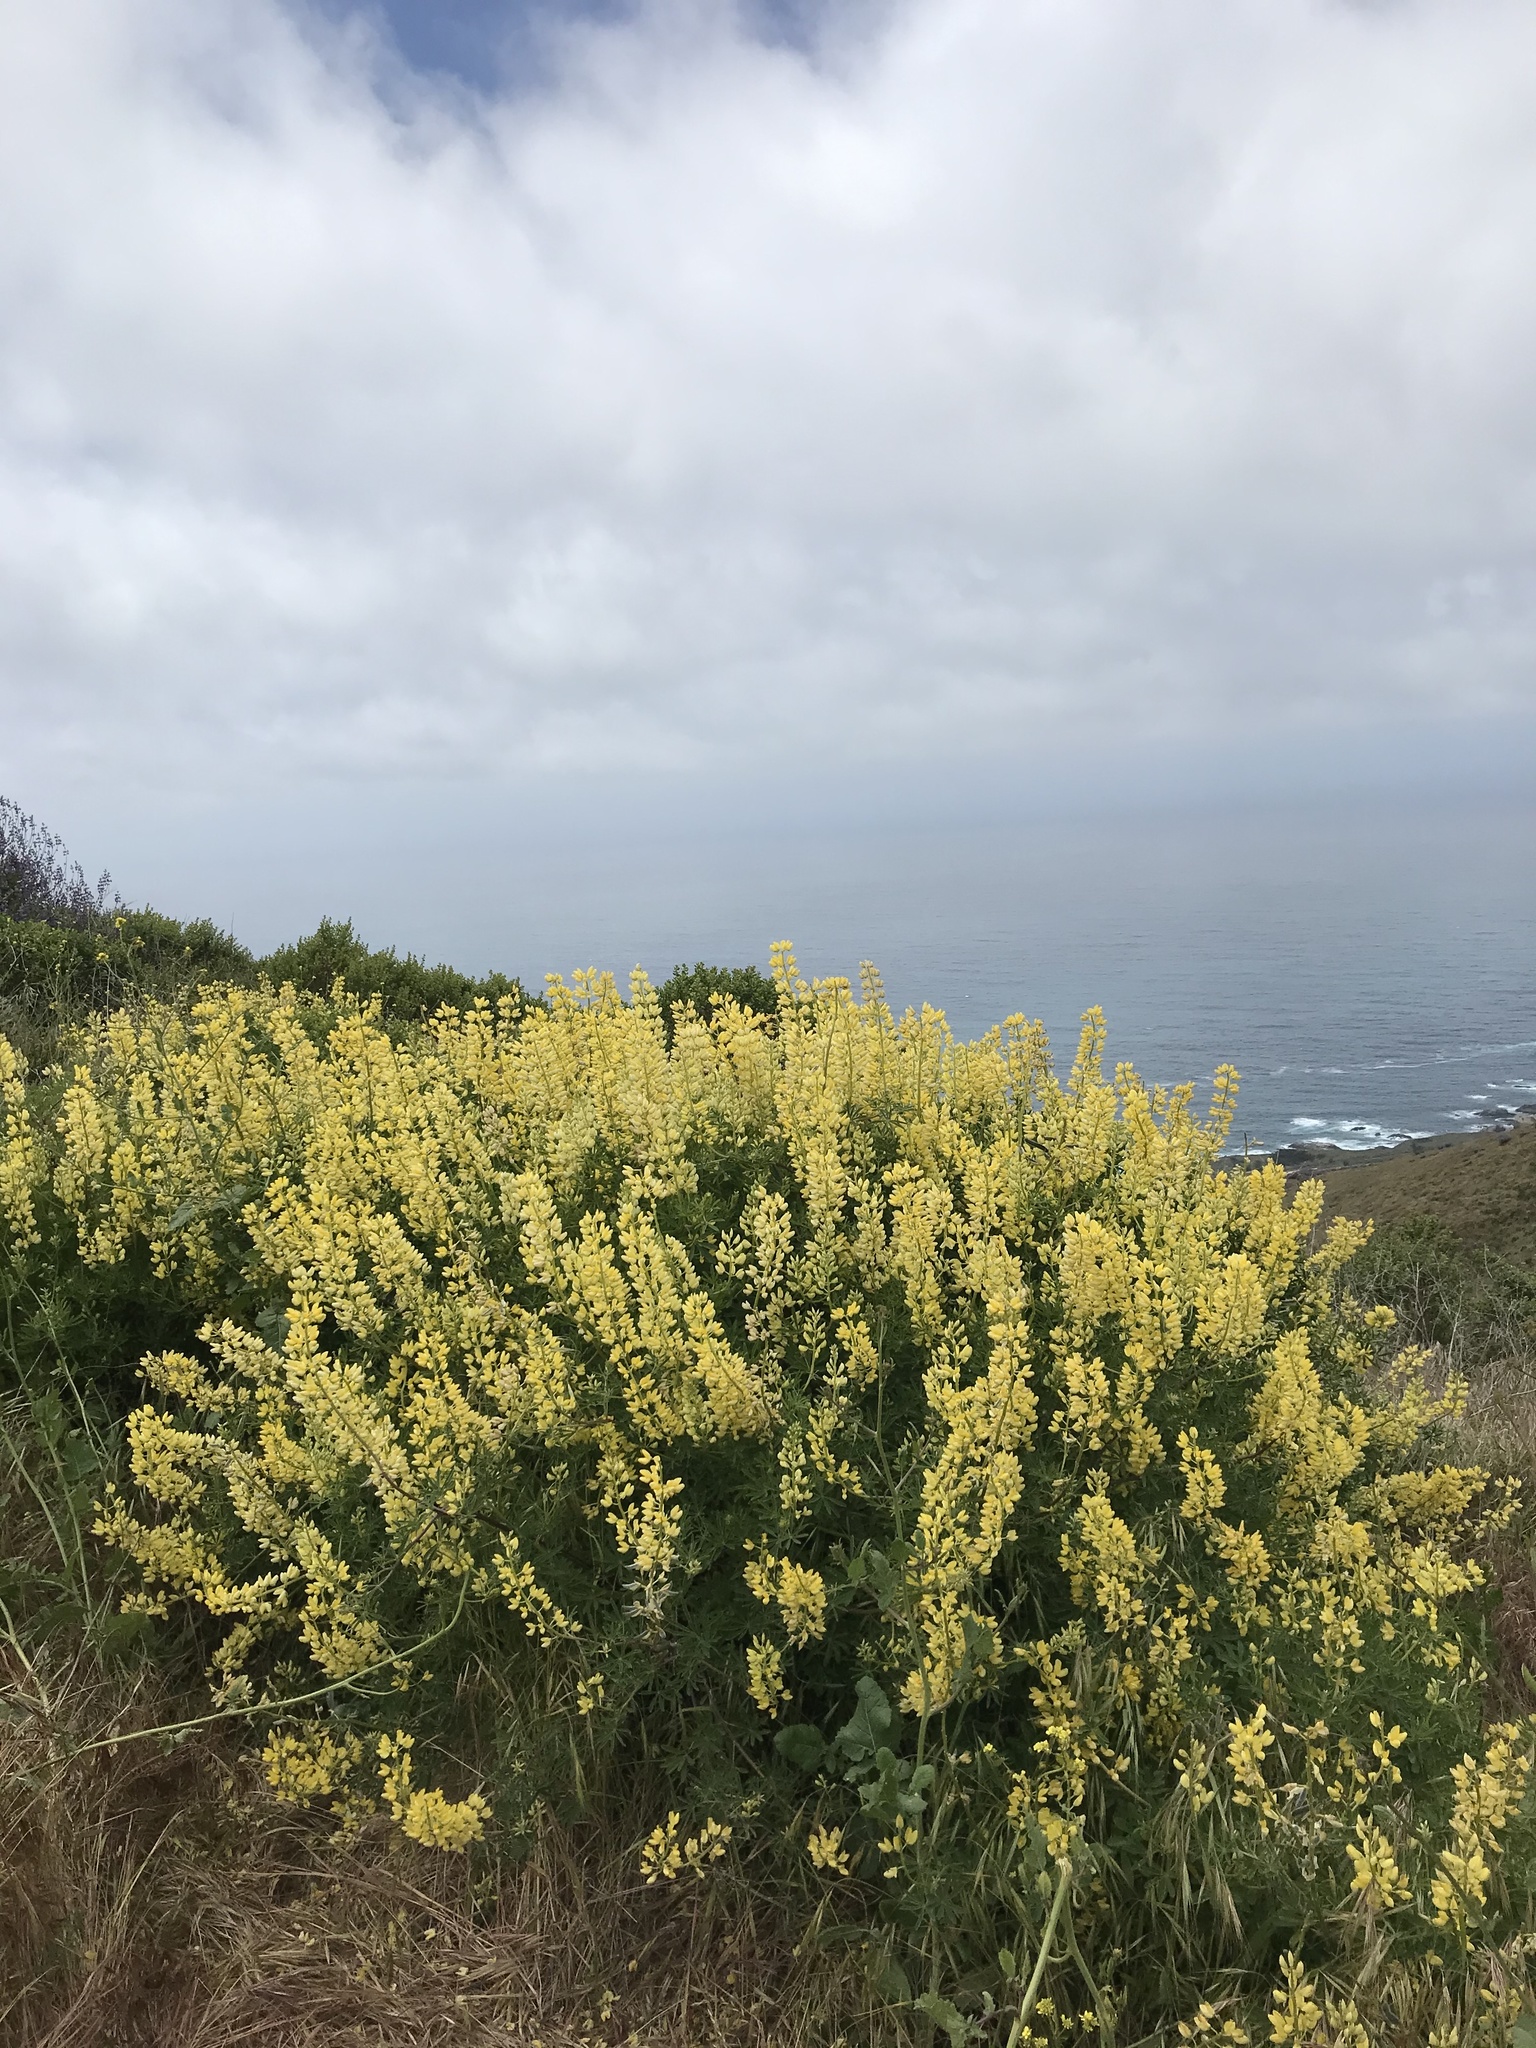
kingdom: Plantae
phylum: Tracheophyta
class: Magnoliopsida
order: Fabales
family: Fabaceae
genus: Lupinus
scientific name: Lupinus arboreus
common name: Yellow bush lupine
